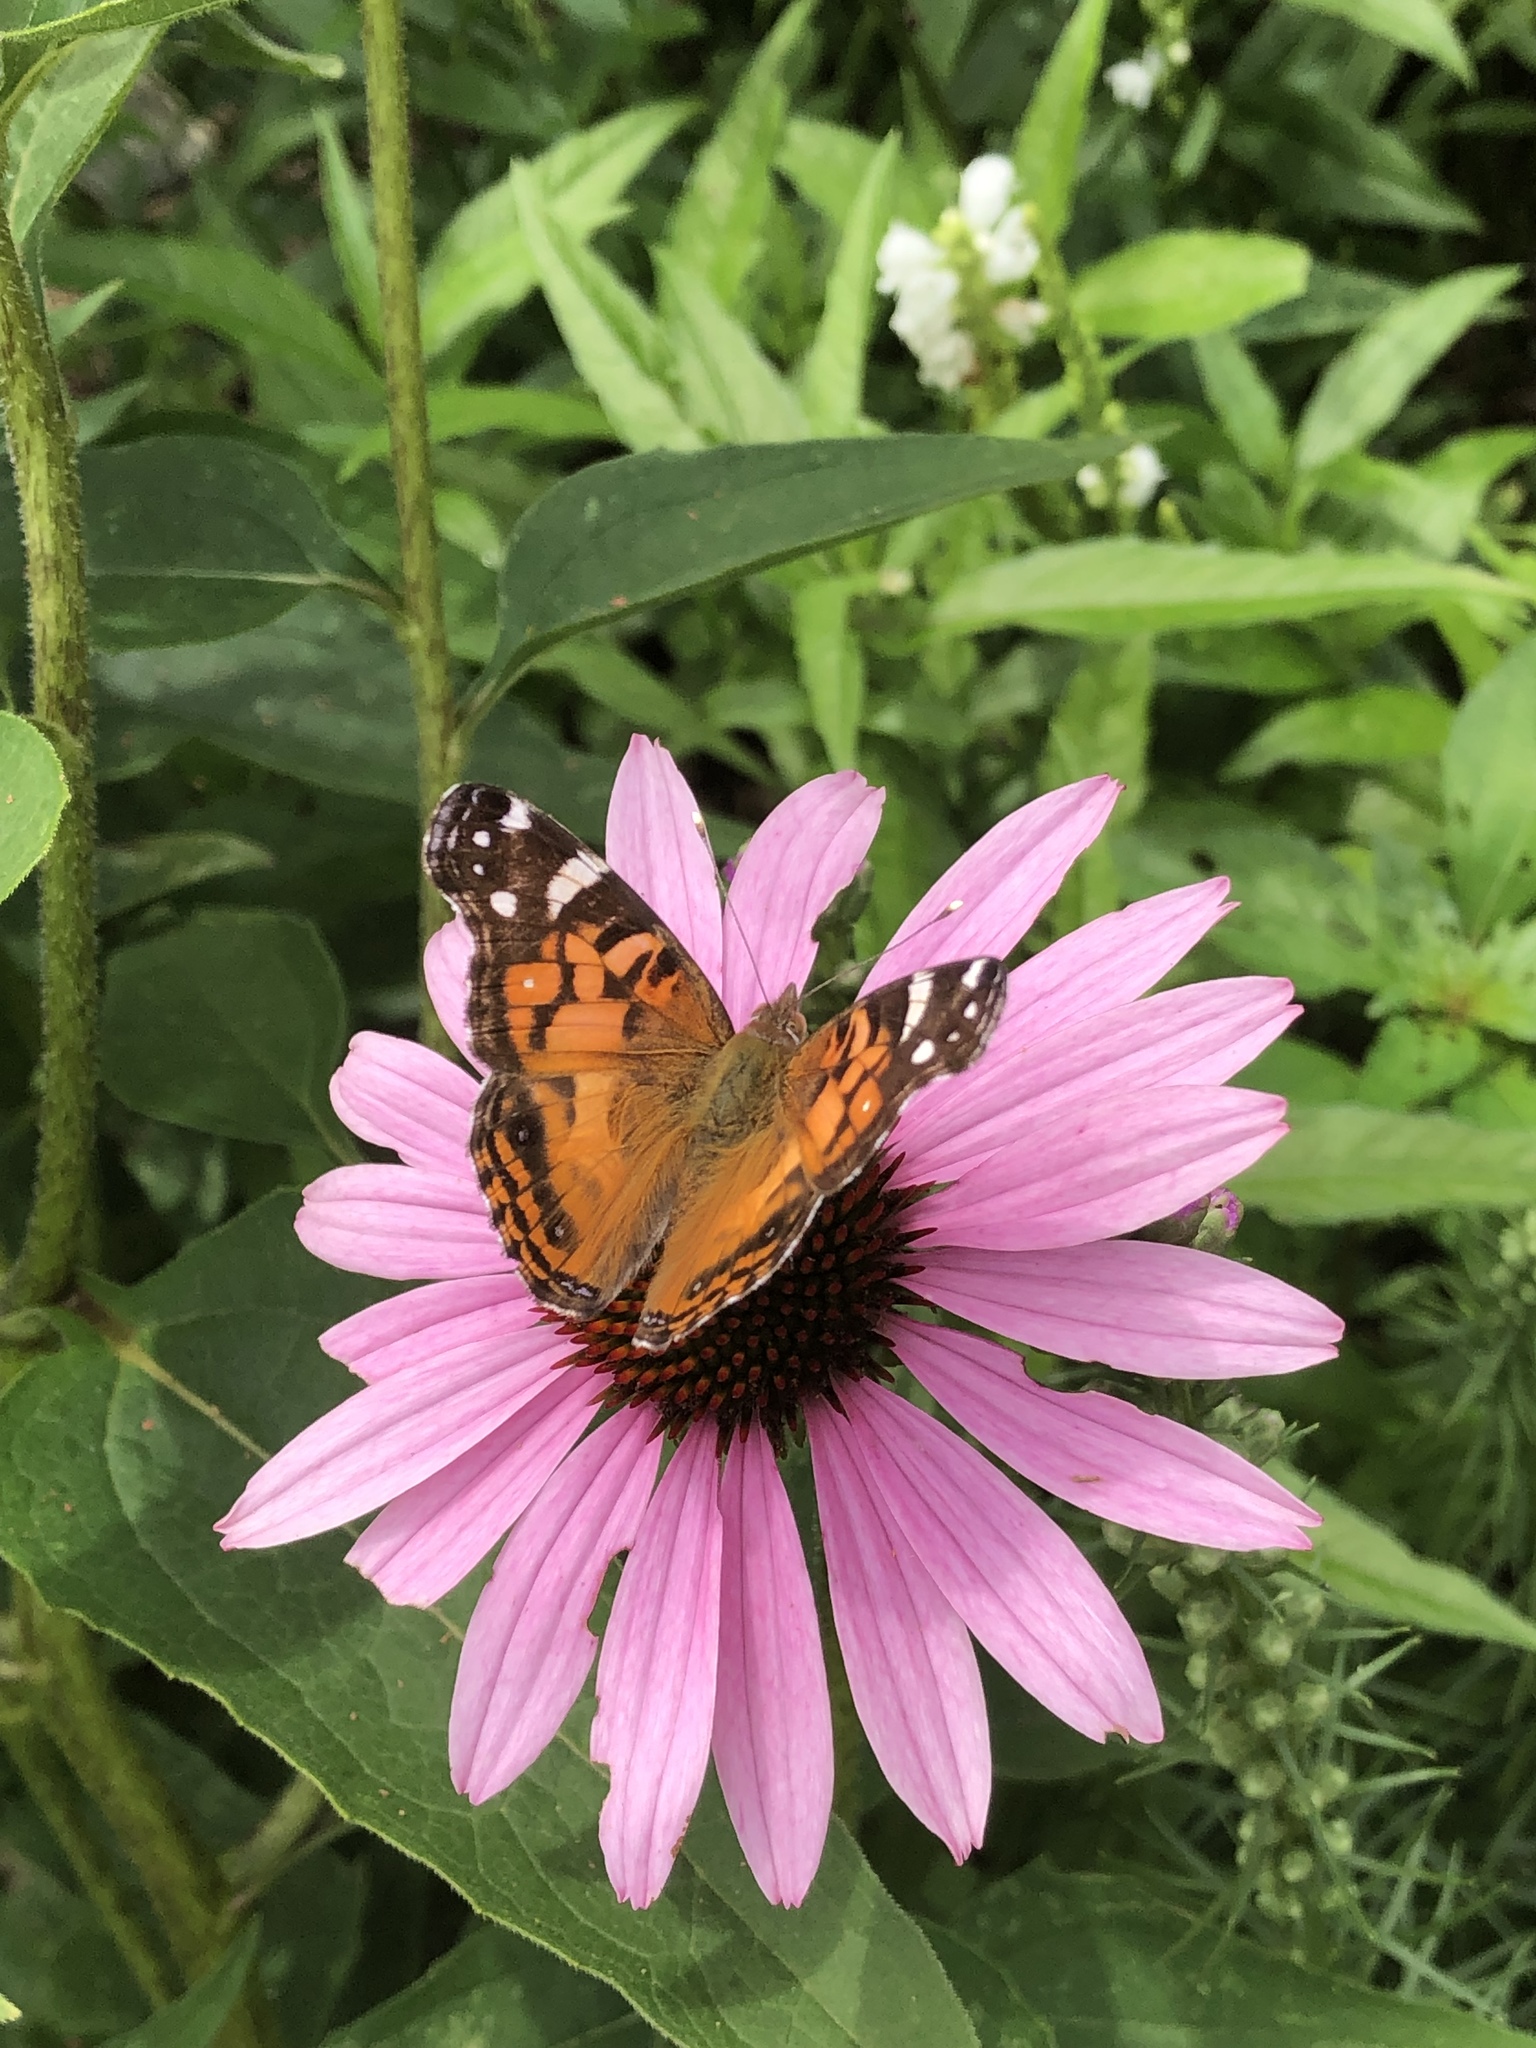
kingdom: Animalia
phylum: Arthropoda
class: Insecta
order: Lepidoptera
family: Nymphalidae
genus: Vanessa
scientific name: Vanessa virginiensis
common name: American lady
